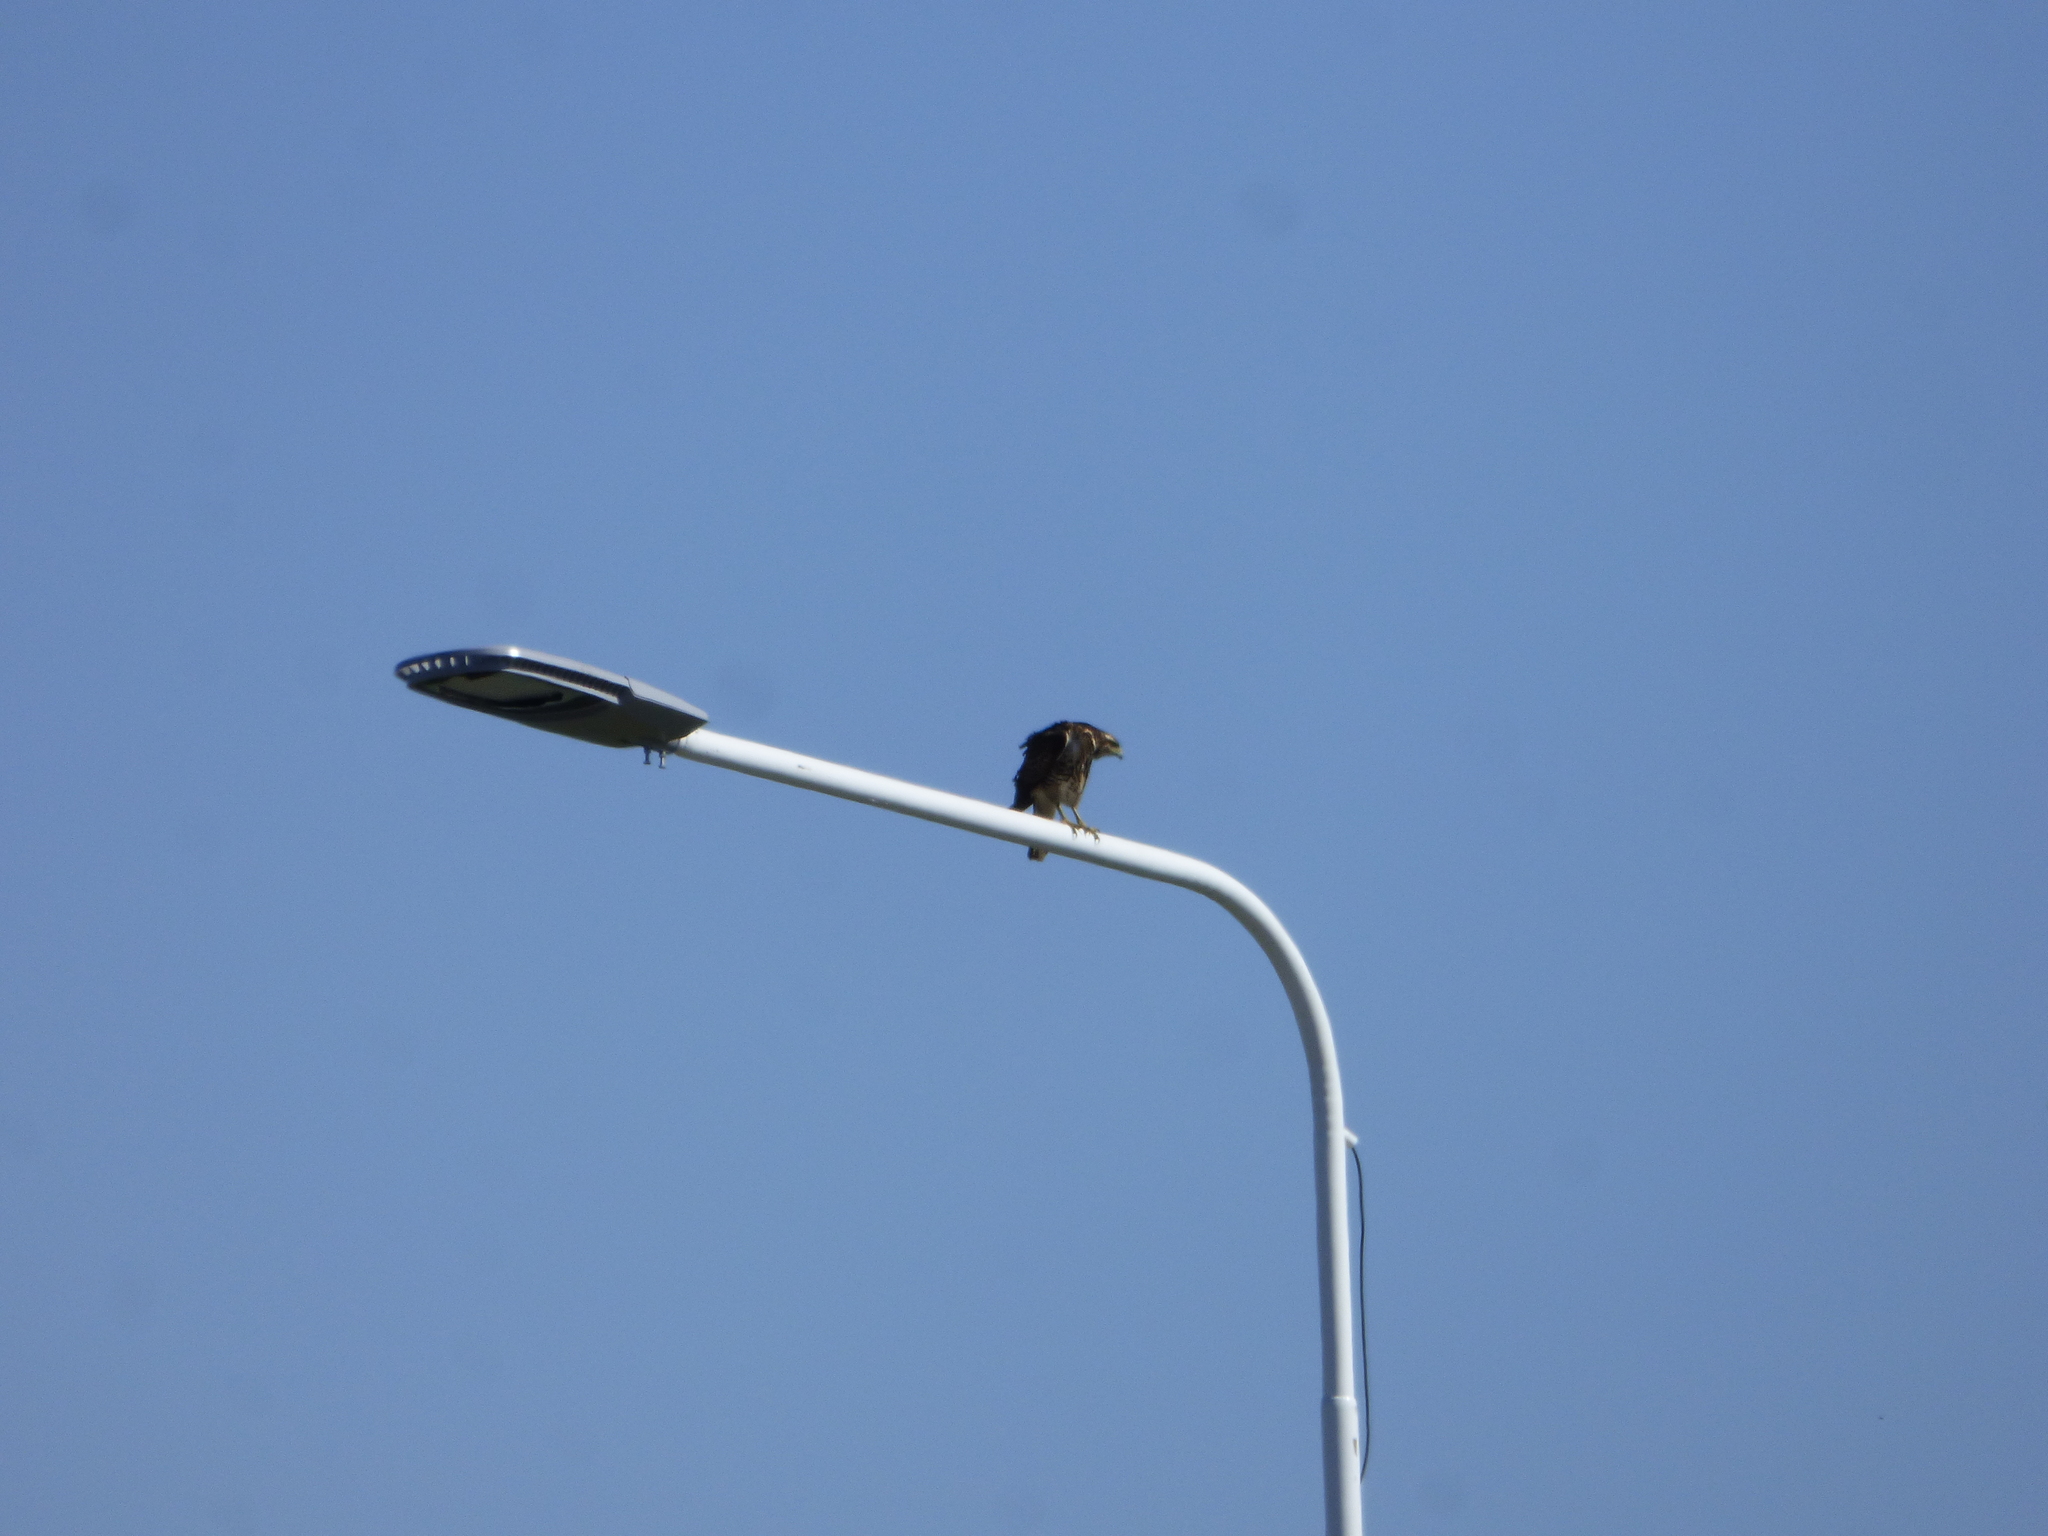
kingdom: Animalia
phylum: Chordata
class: Aves
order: Accipitriformes
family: Accipitridae
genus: Parabuteo
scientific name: Parabuteo unicinctus
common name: Harris's hawk
